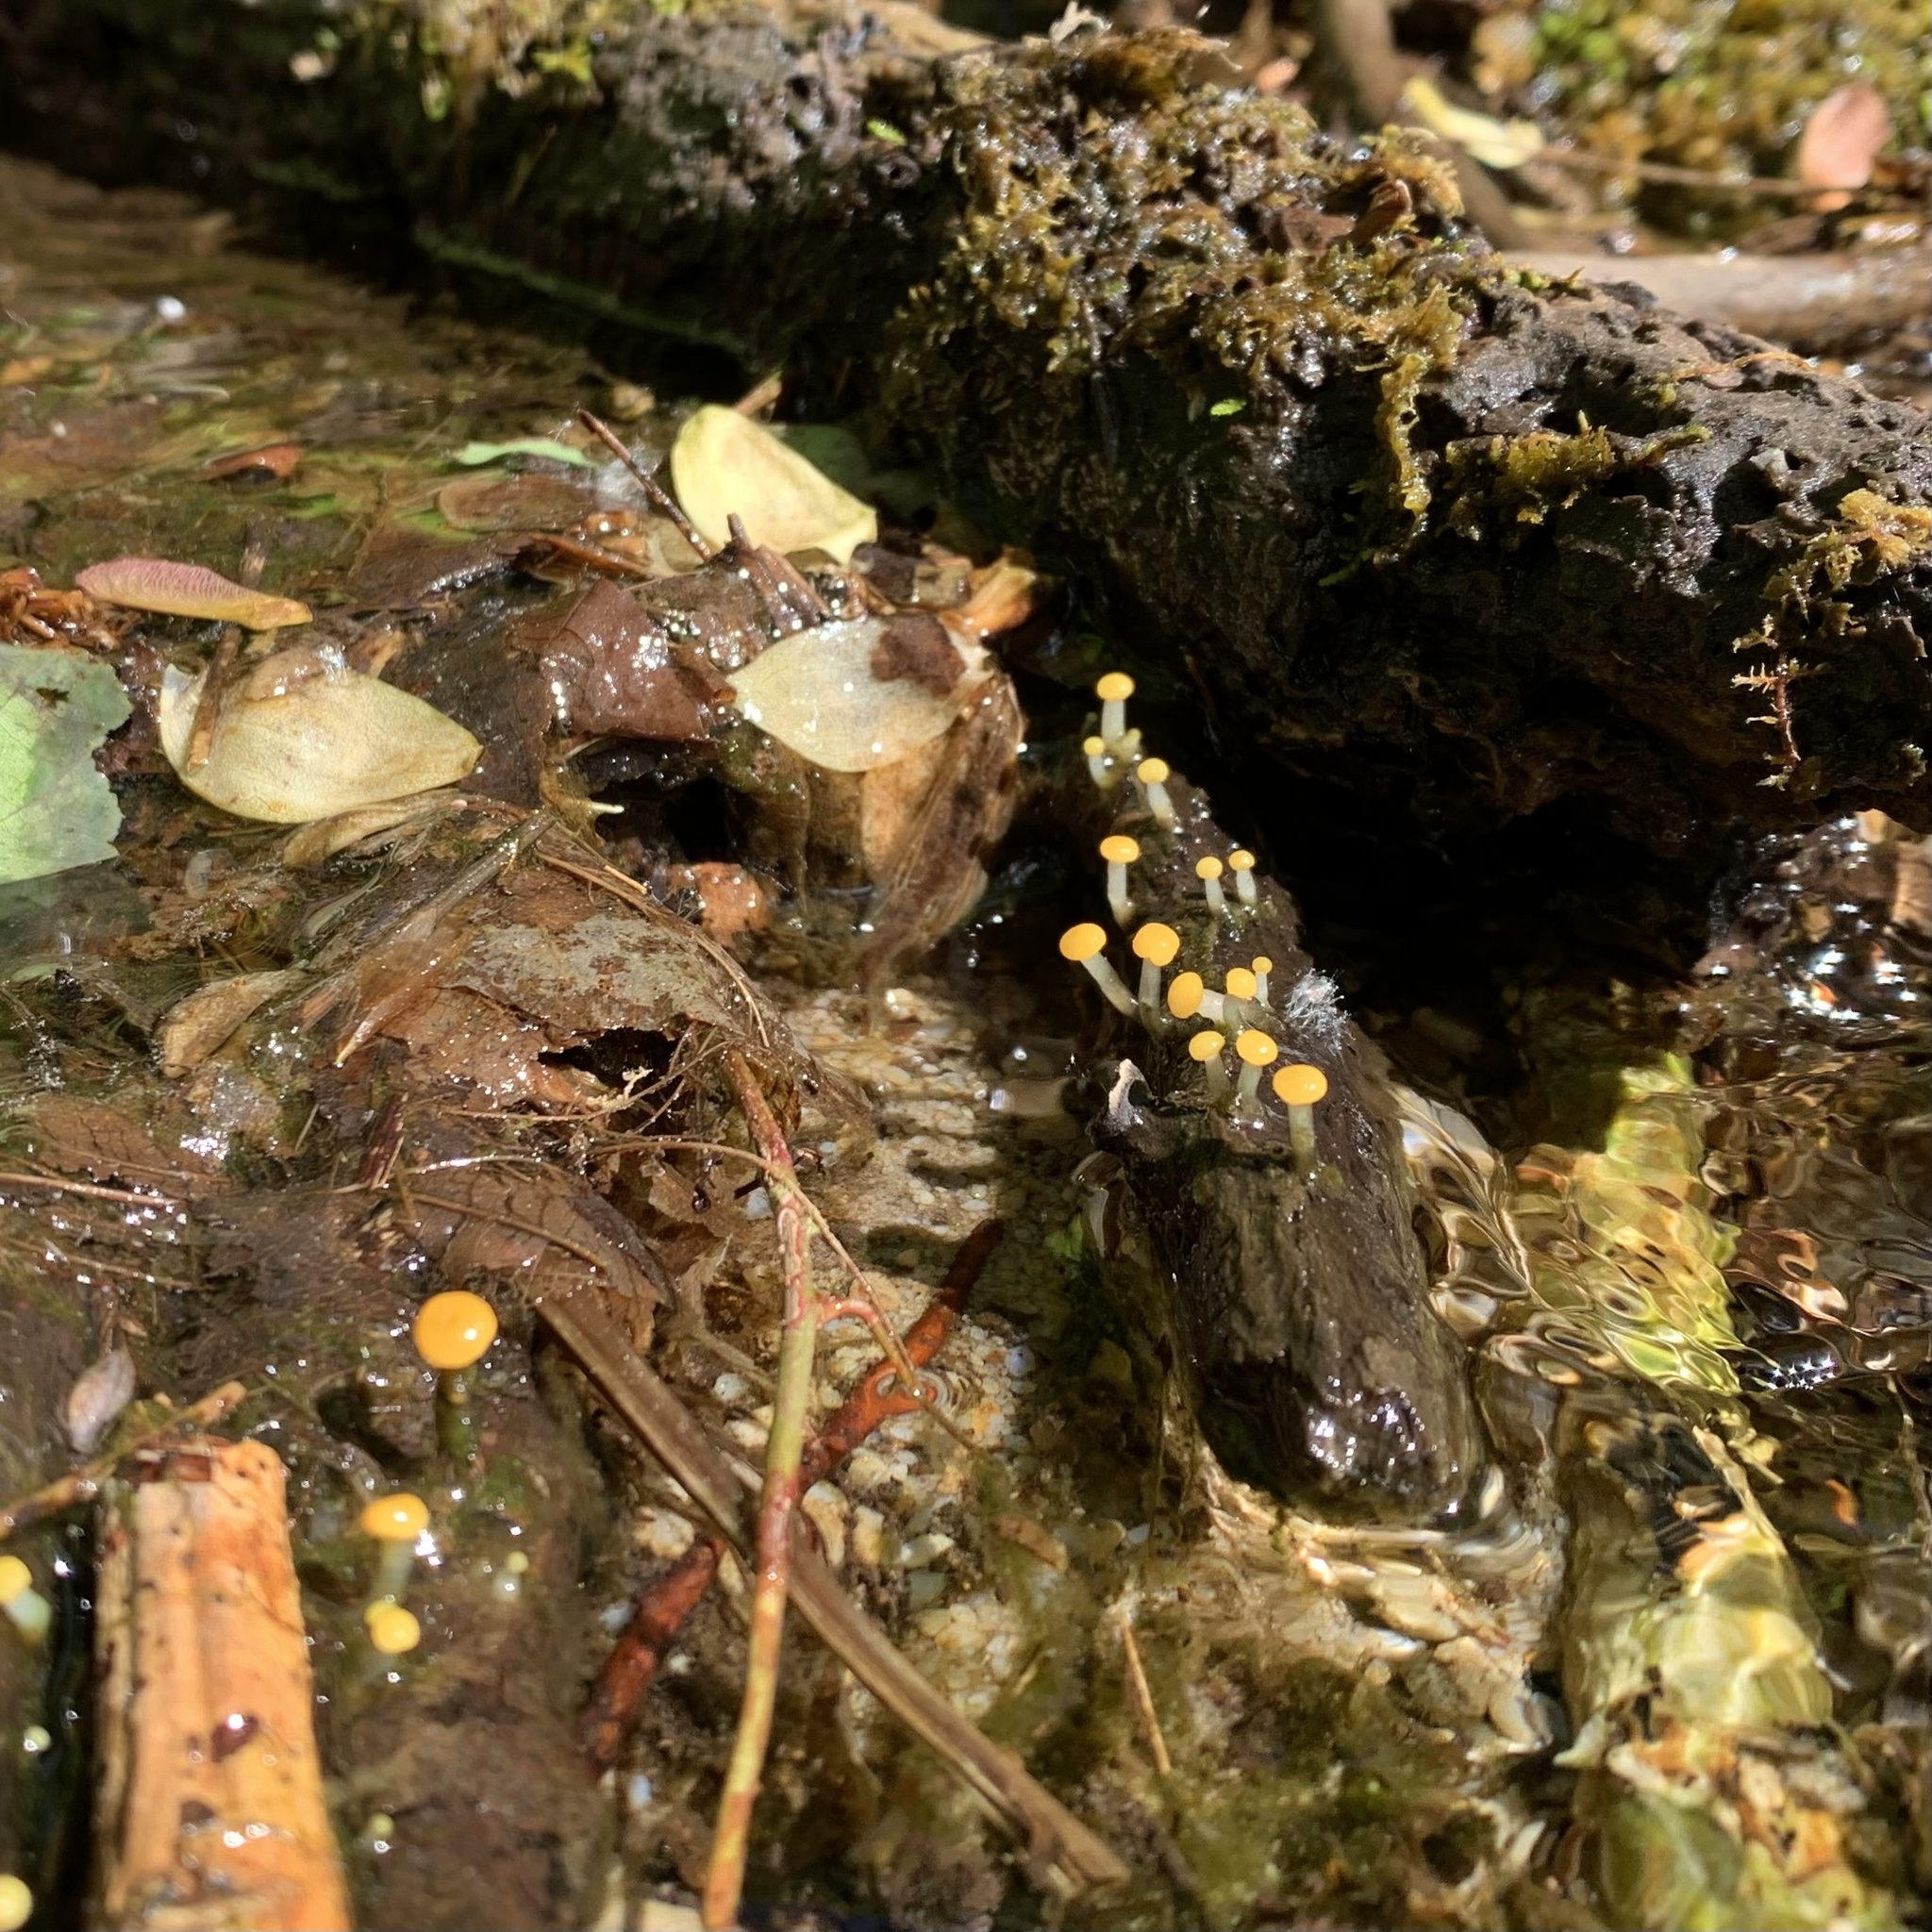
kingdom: Fungi
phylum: Ascomycota
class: Leotiomycetes
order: Helotiales
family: Vibrisseaceae
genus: Vibrissea
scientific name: Vibrissea truncorum
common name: Stream beacon
